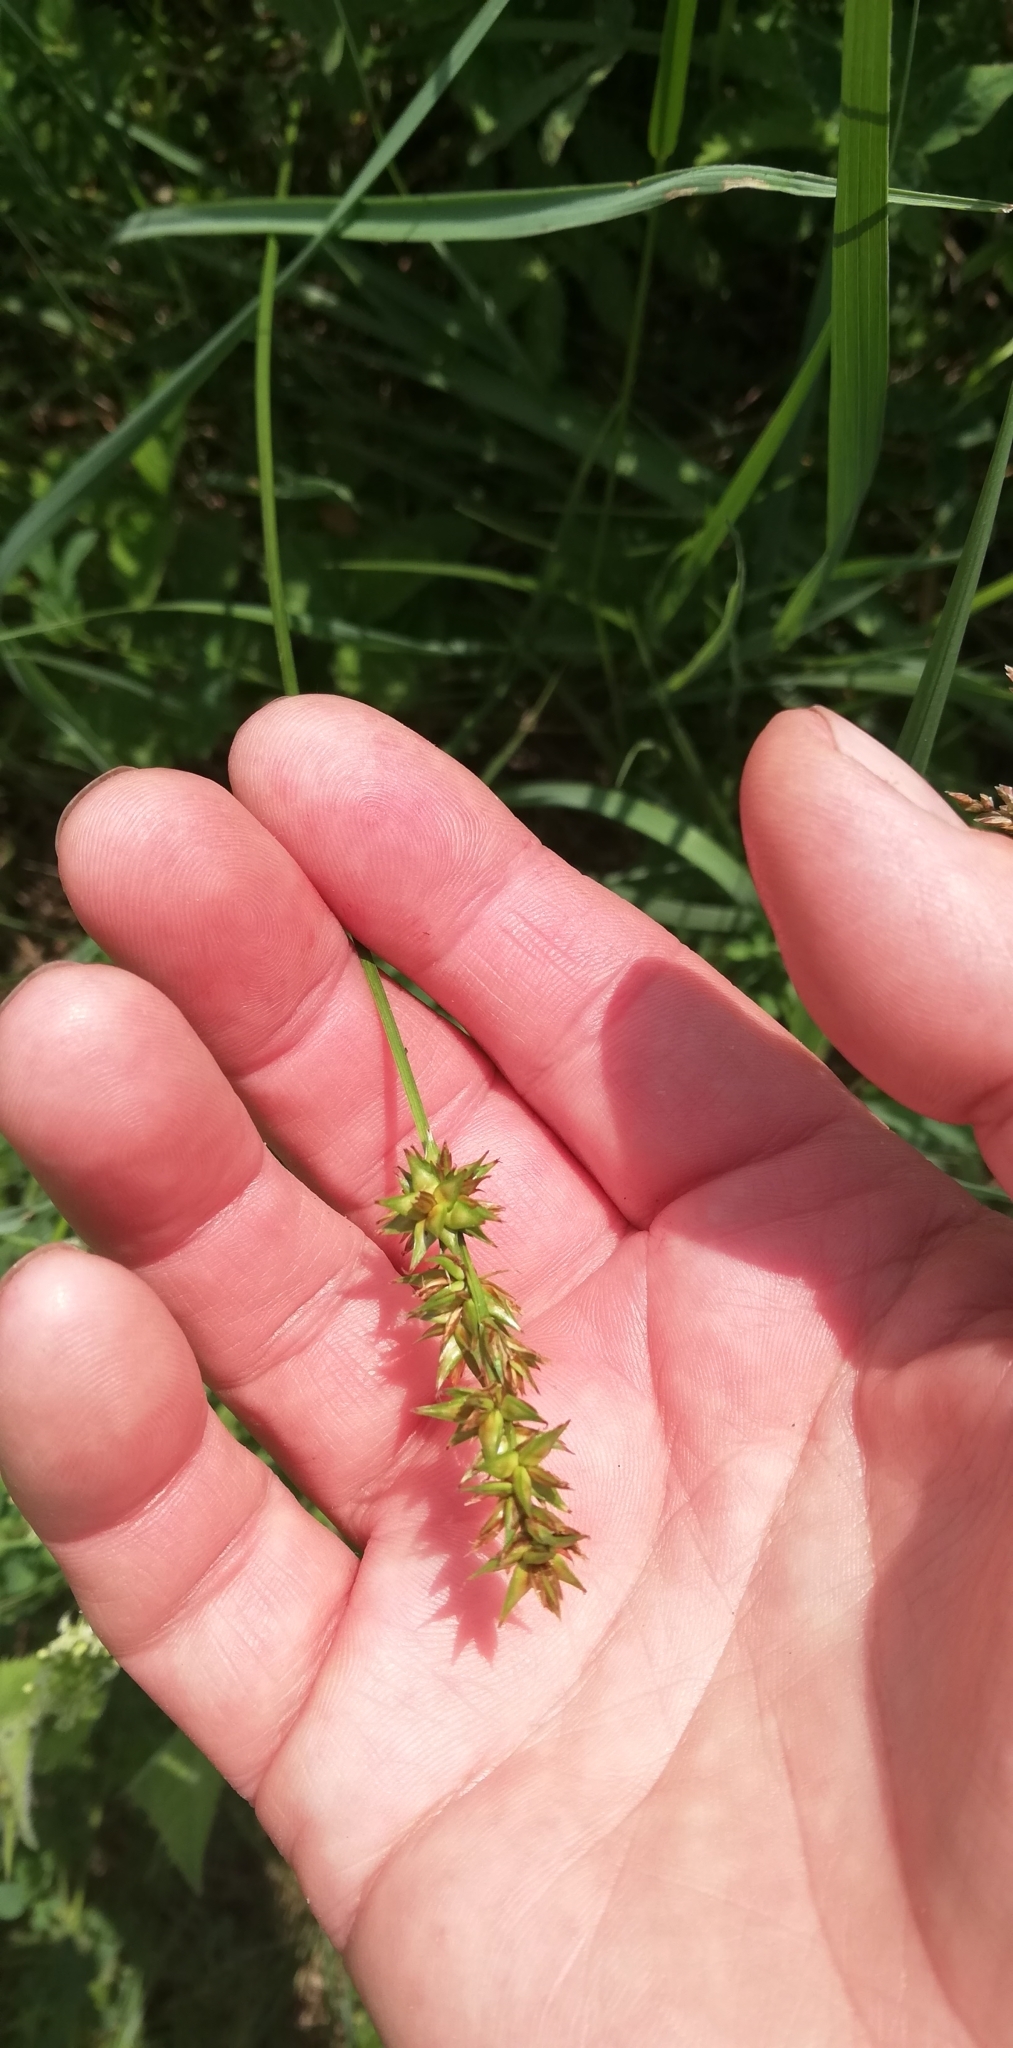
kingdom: Plantae
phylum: Tracheophyta
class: Liliopsida
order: Poales
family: Cyperaceae
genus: Carex
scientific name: Carex spicata
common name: Spiked sedge
